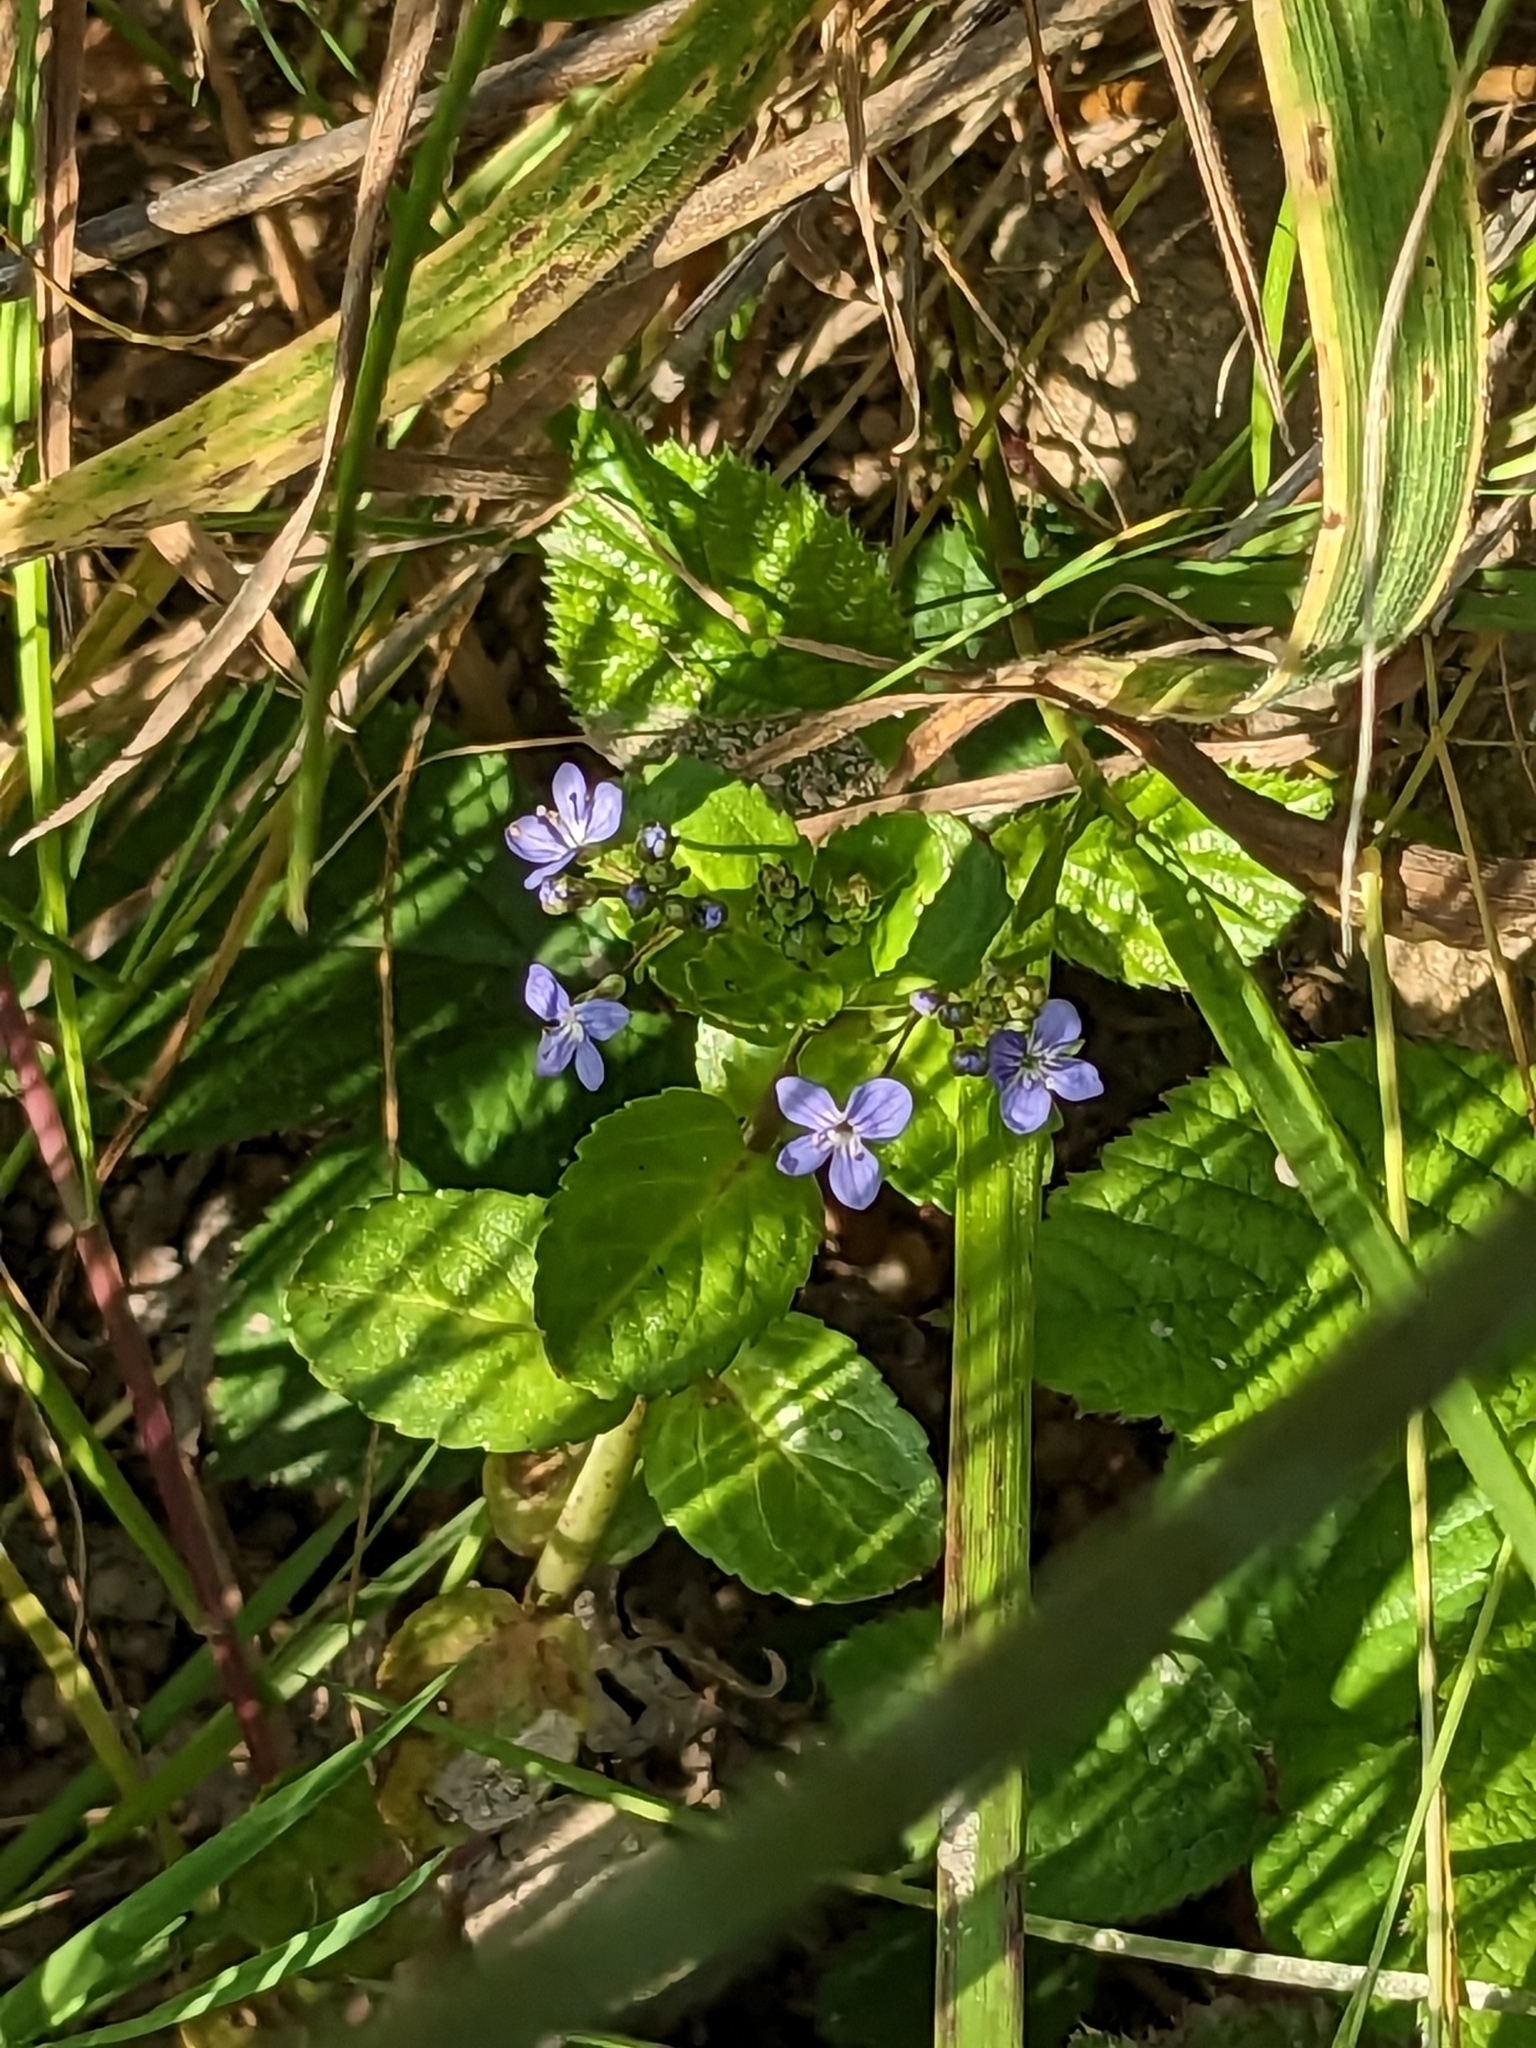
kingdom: Plantae
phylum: Tracheophyta
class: Magnoliopsida
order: Lamiales
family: Plantaginaceae
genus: Veronica
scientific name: Veronica beccabunga
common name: Brooklime
